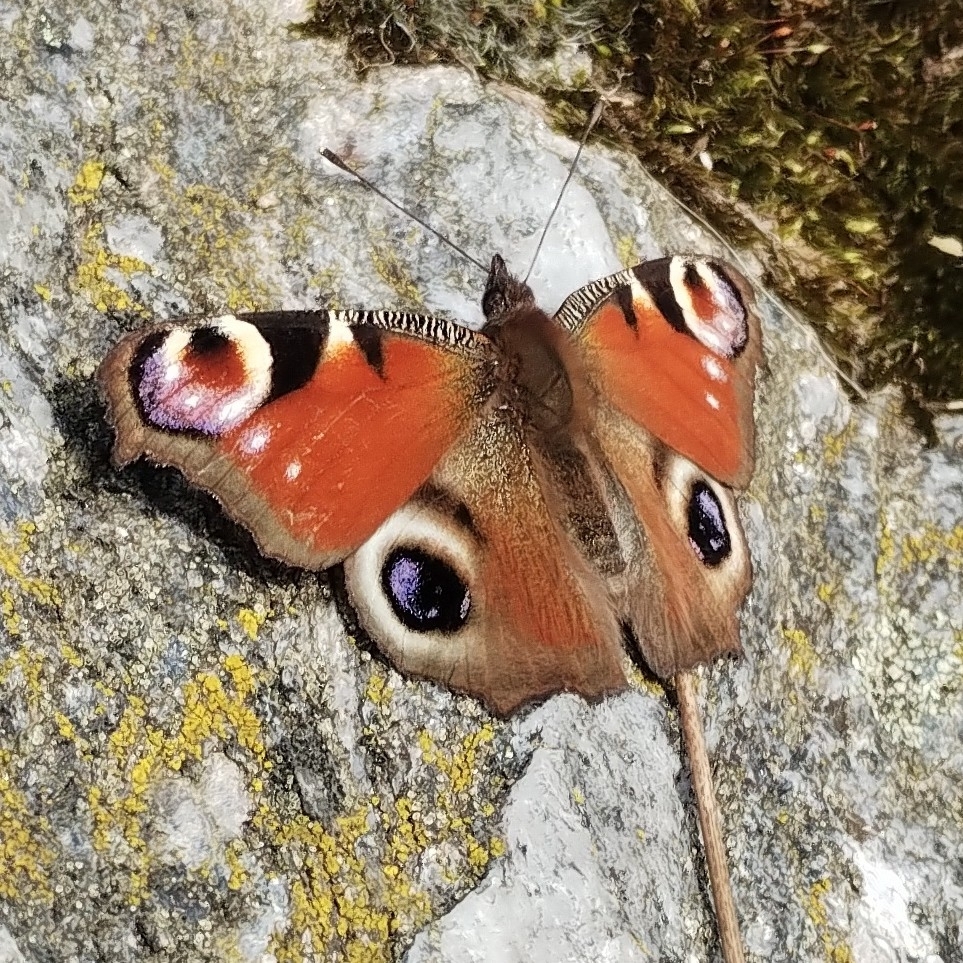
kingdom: Animalia
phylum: Arthropoda
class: Insecta
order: Lepidoptera
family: Nymphalidae
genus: Aglais
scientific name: Aglais io
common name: Peacock
